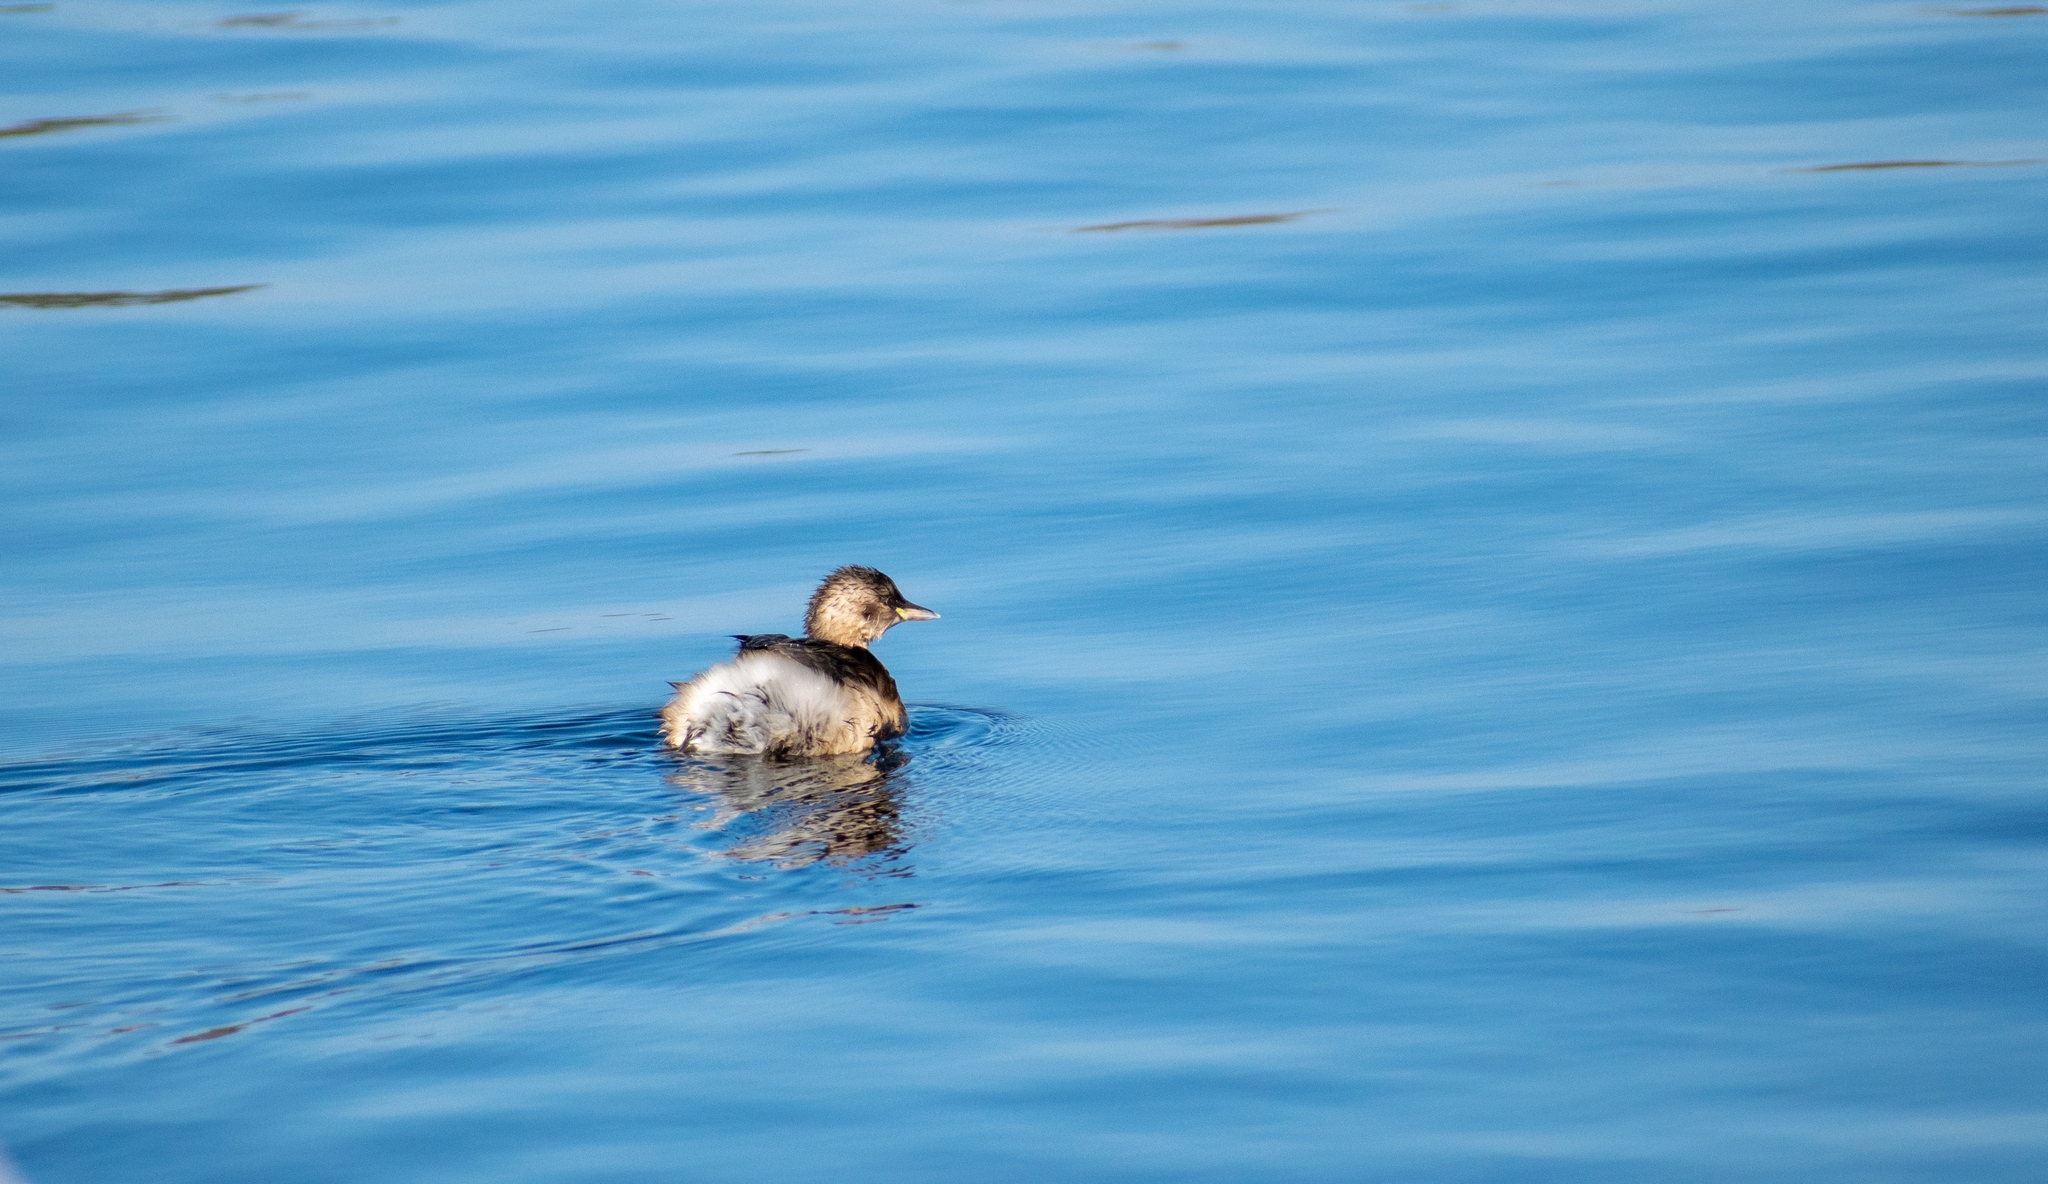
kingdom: Animalia
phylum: Chordata
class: Aves
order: Podicipediformes
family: Podicipedidae
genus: Tachybaptus
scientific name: Tachybaptus ruficollis
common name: Little grebe
